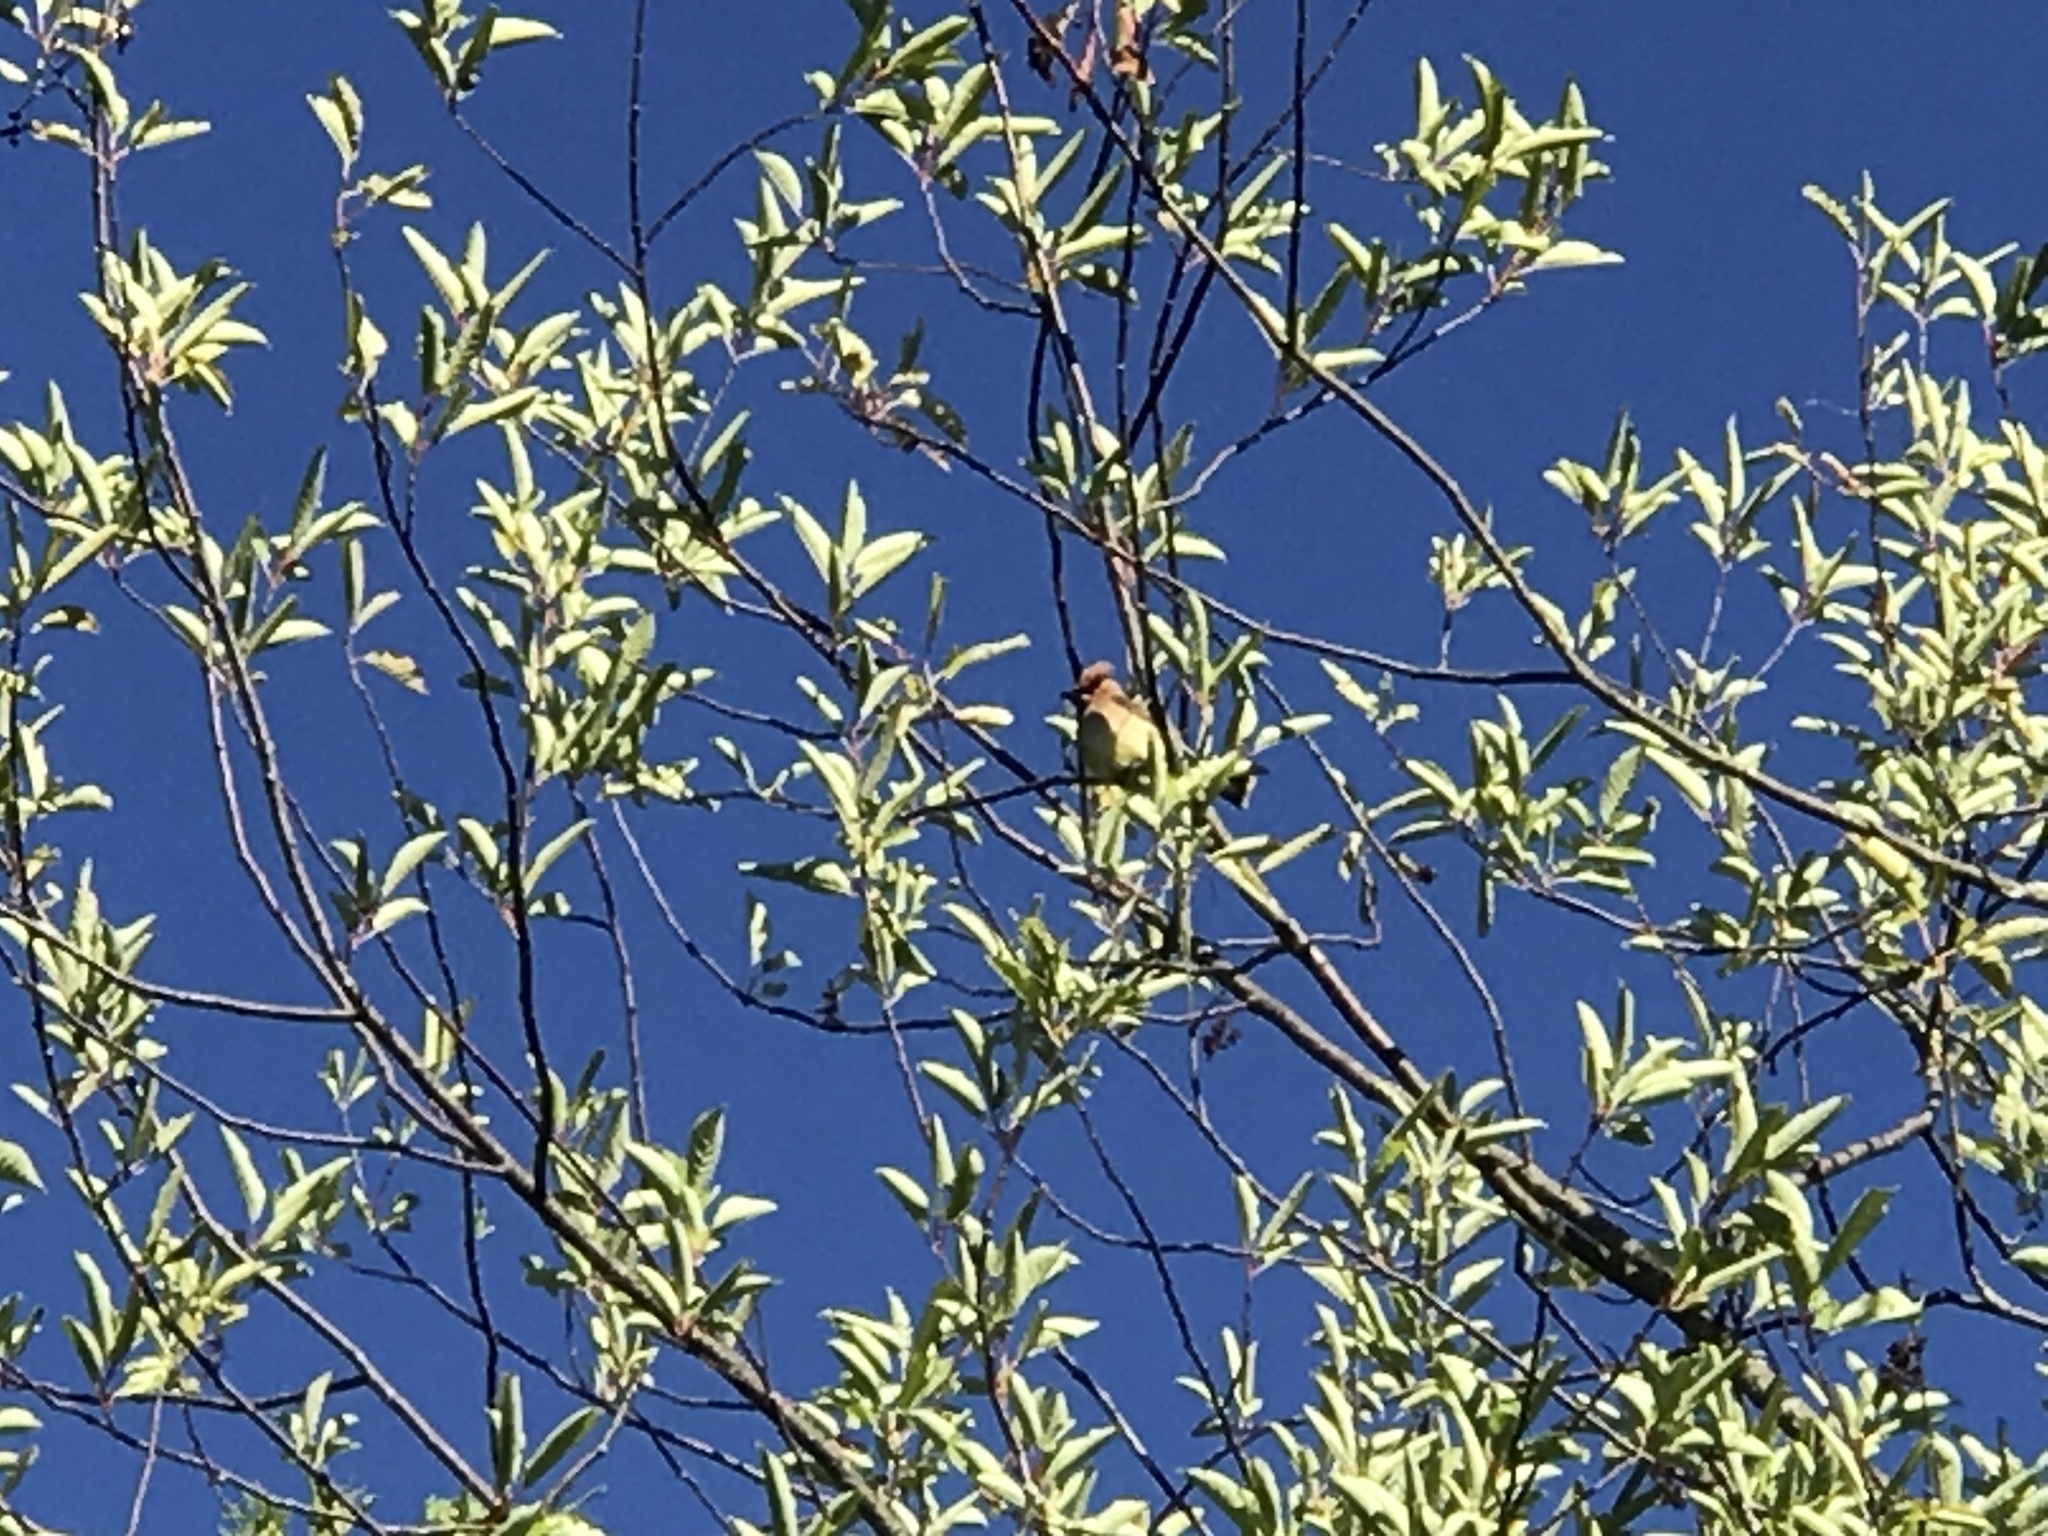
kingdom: Animalia
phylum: Chordata
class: Aves
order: Passeriformes
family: Bombycillidae
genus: Bombycilla
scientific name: Bombycilla cedrorum
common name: Cedar waxwing
